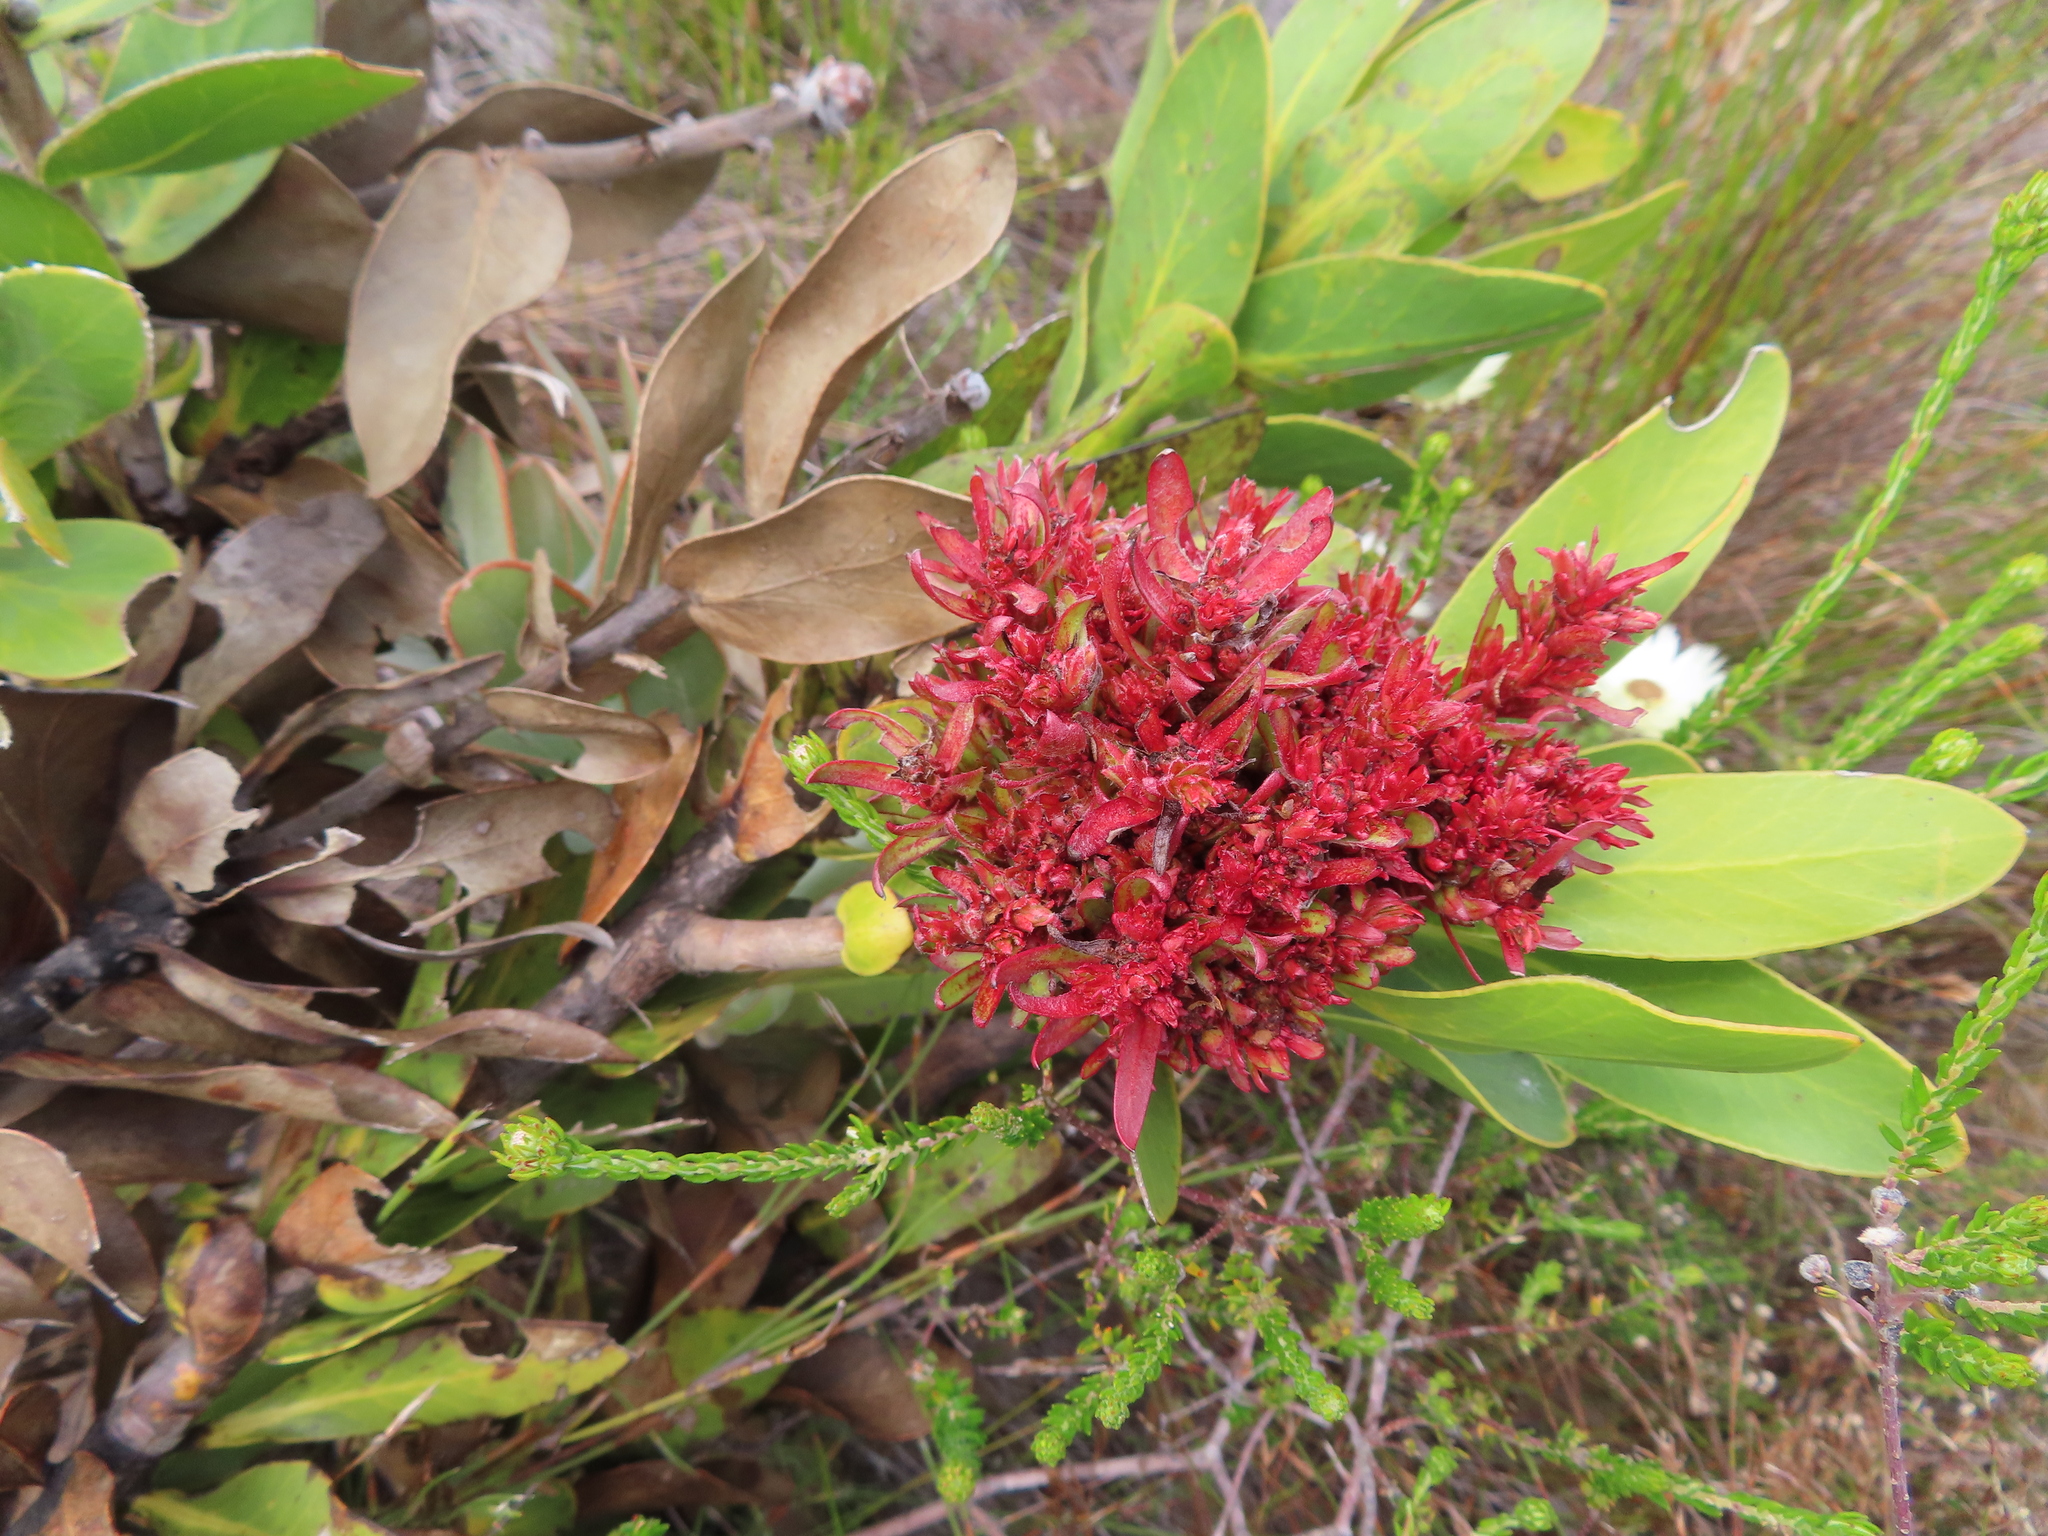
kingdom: Bacteria
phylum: Firmicutes
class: Bacilli
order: Acholeplasmatales
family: Acholeplasmataceae
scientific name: Acholeplasmataceae
